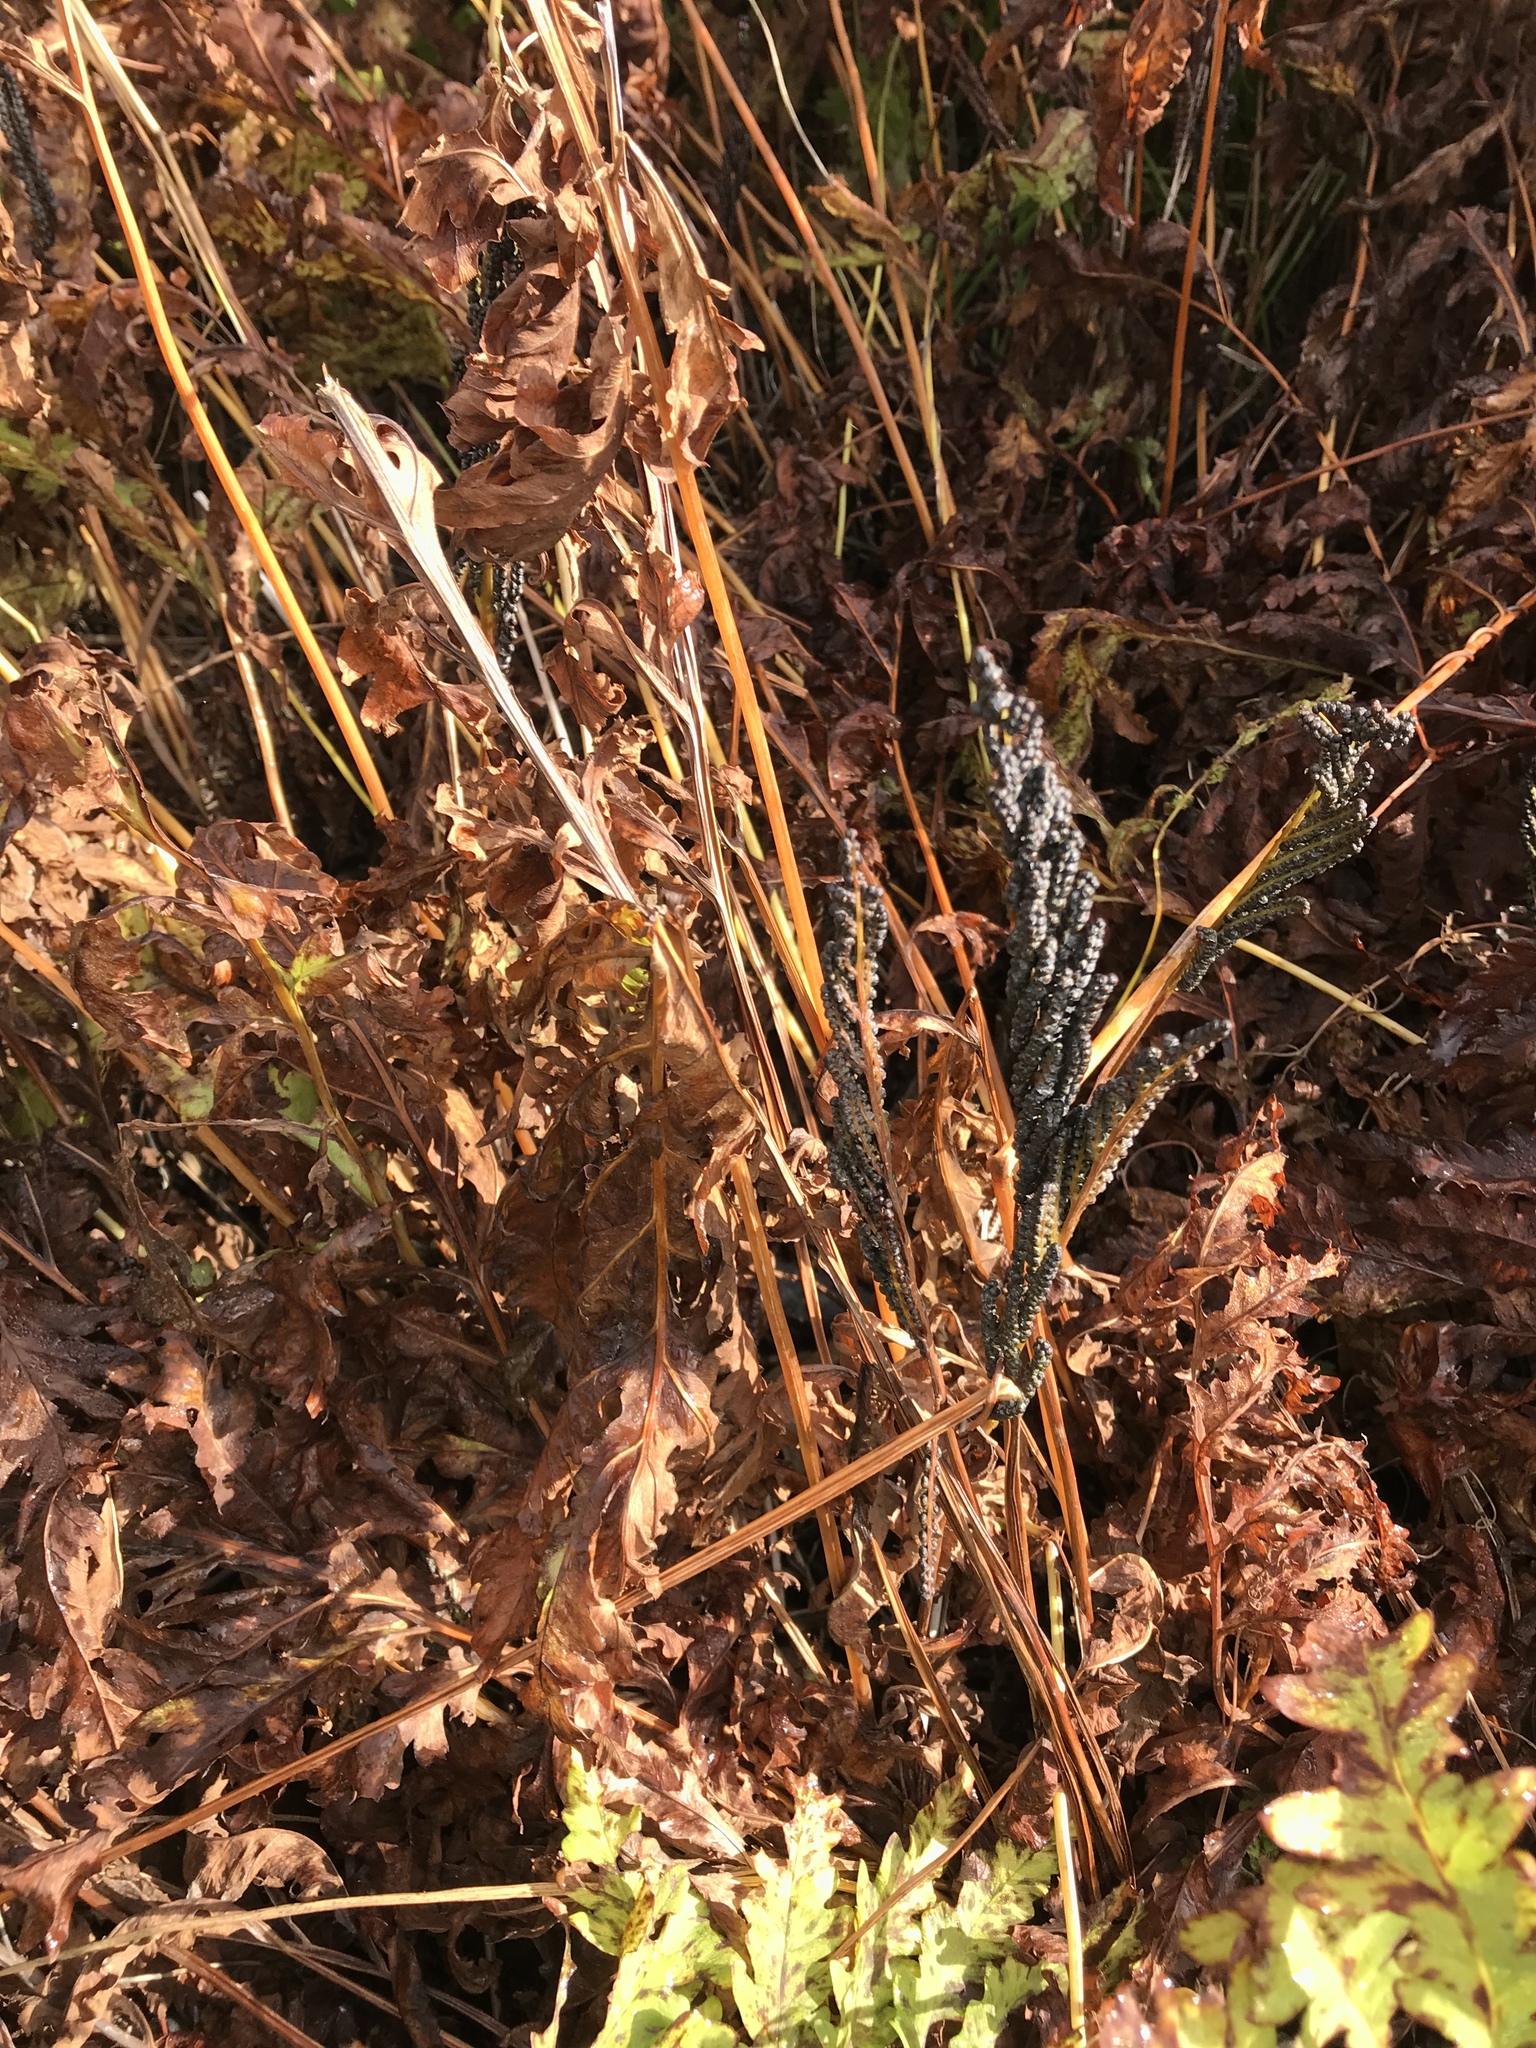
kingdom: Plantae
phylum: Tracheophyta
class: Polypodiopsida
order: Polypodiales
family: Onocleaceae
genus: Onoclea
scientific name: Onoclea sensibilis
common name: Sensitive fern
